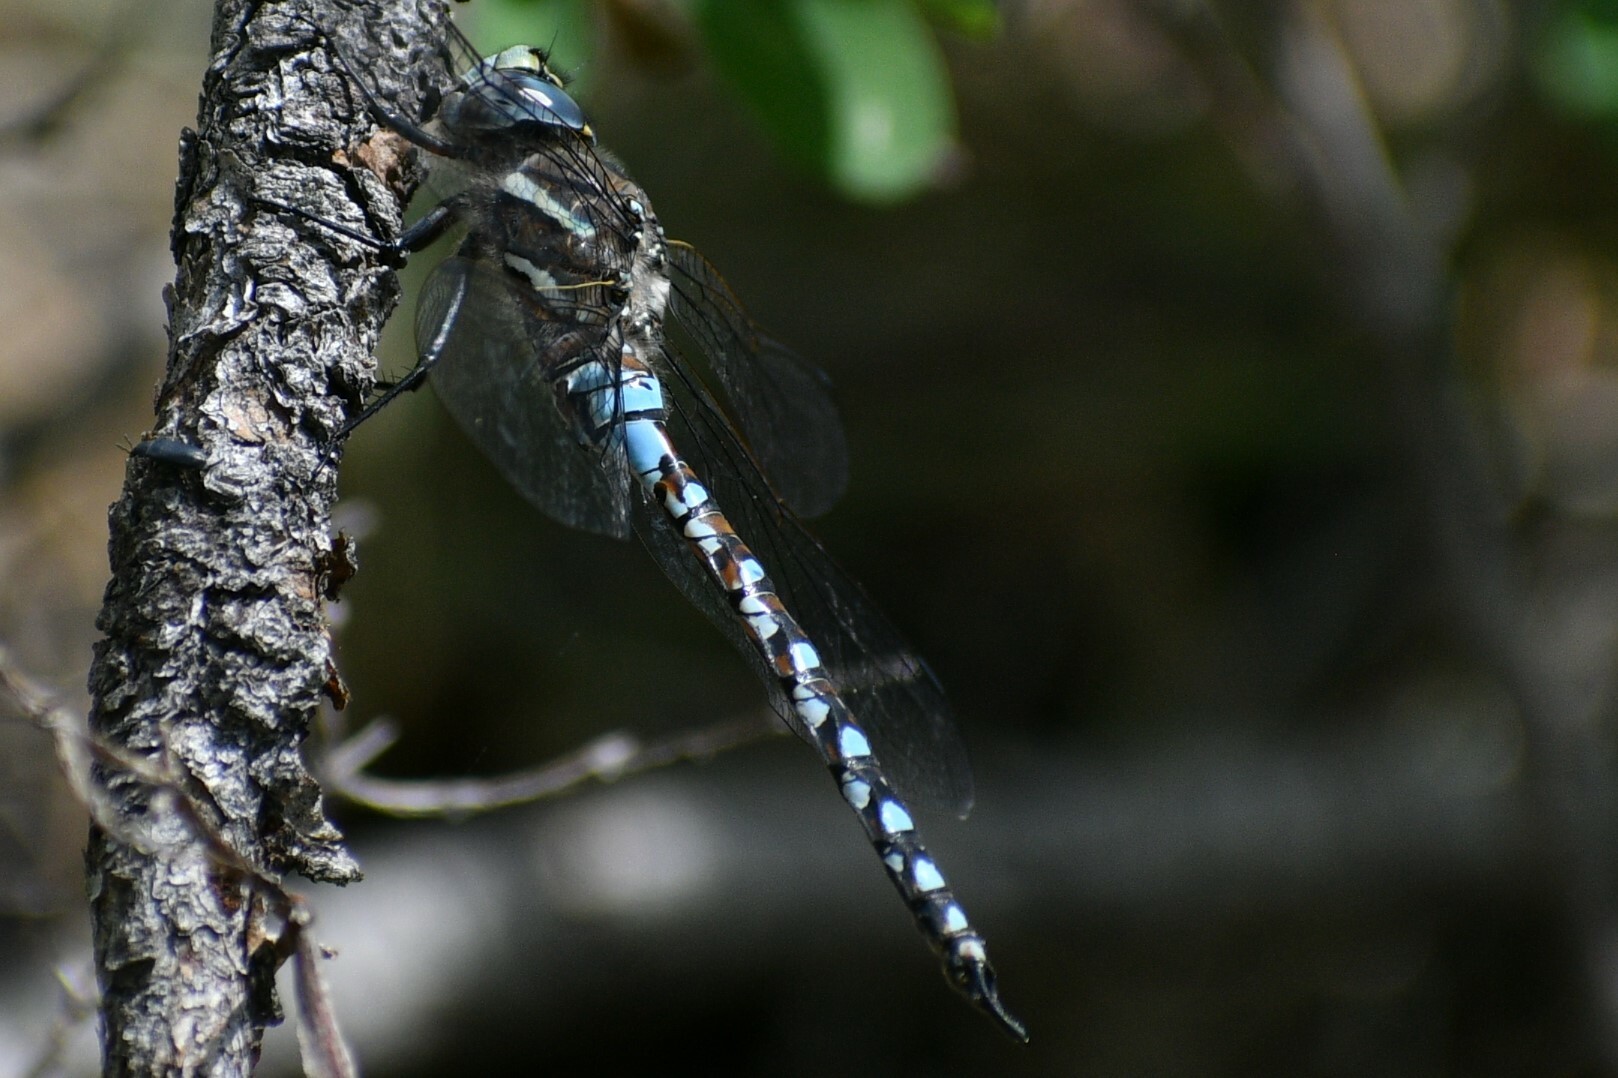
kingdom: Animalia
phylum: Arthropoda
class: Insecta
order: Odonata
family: Aeshnidae
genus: Rhionaeschna
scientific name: Rhionaeschna californica
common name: California darner
